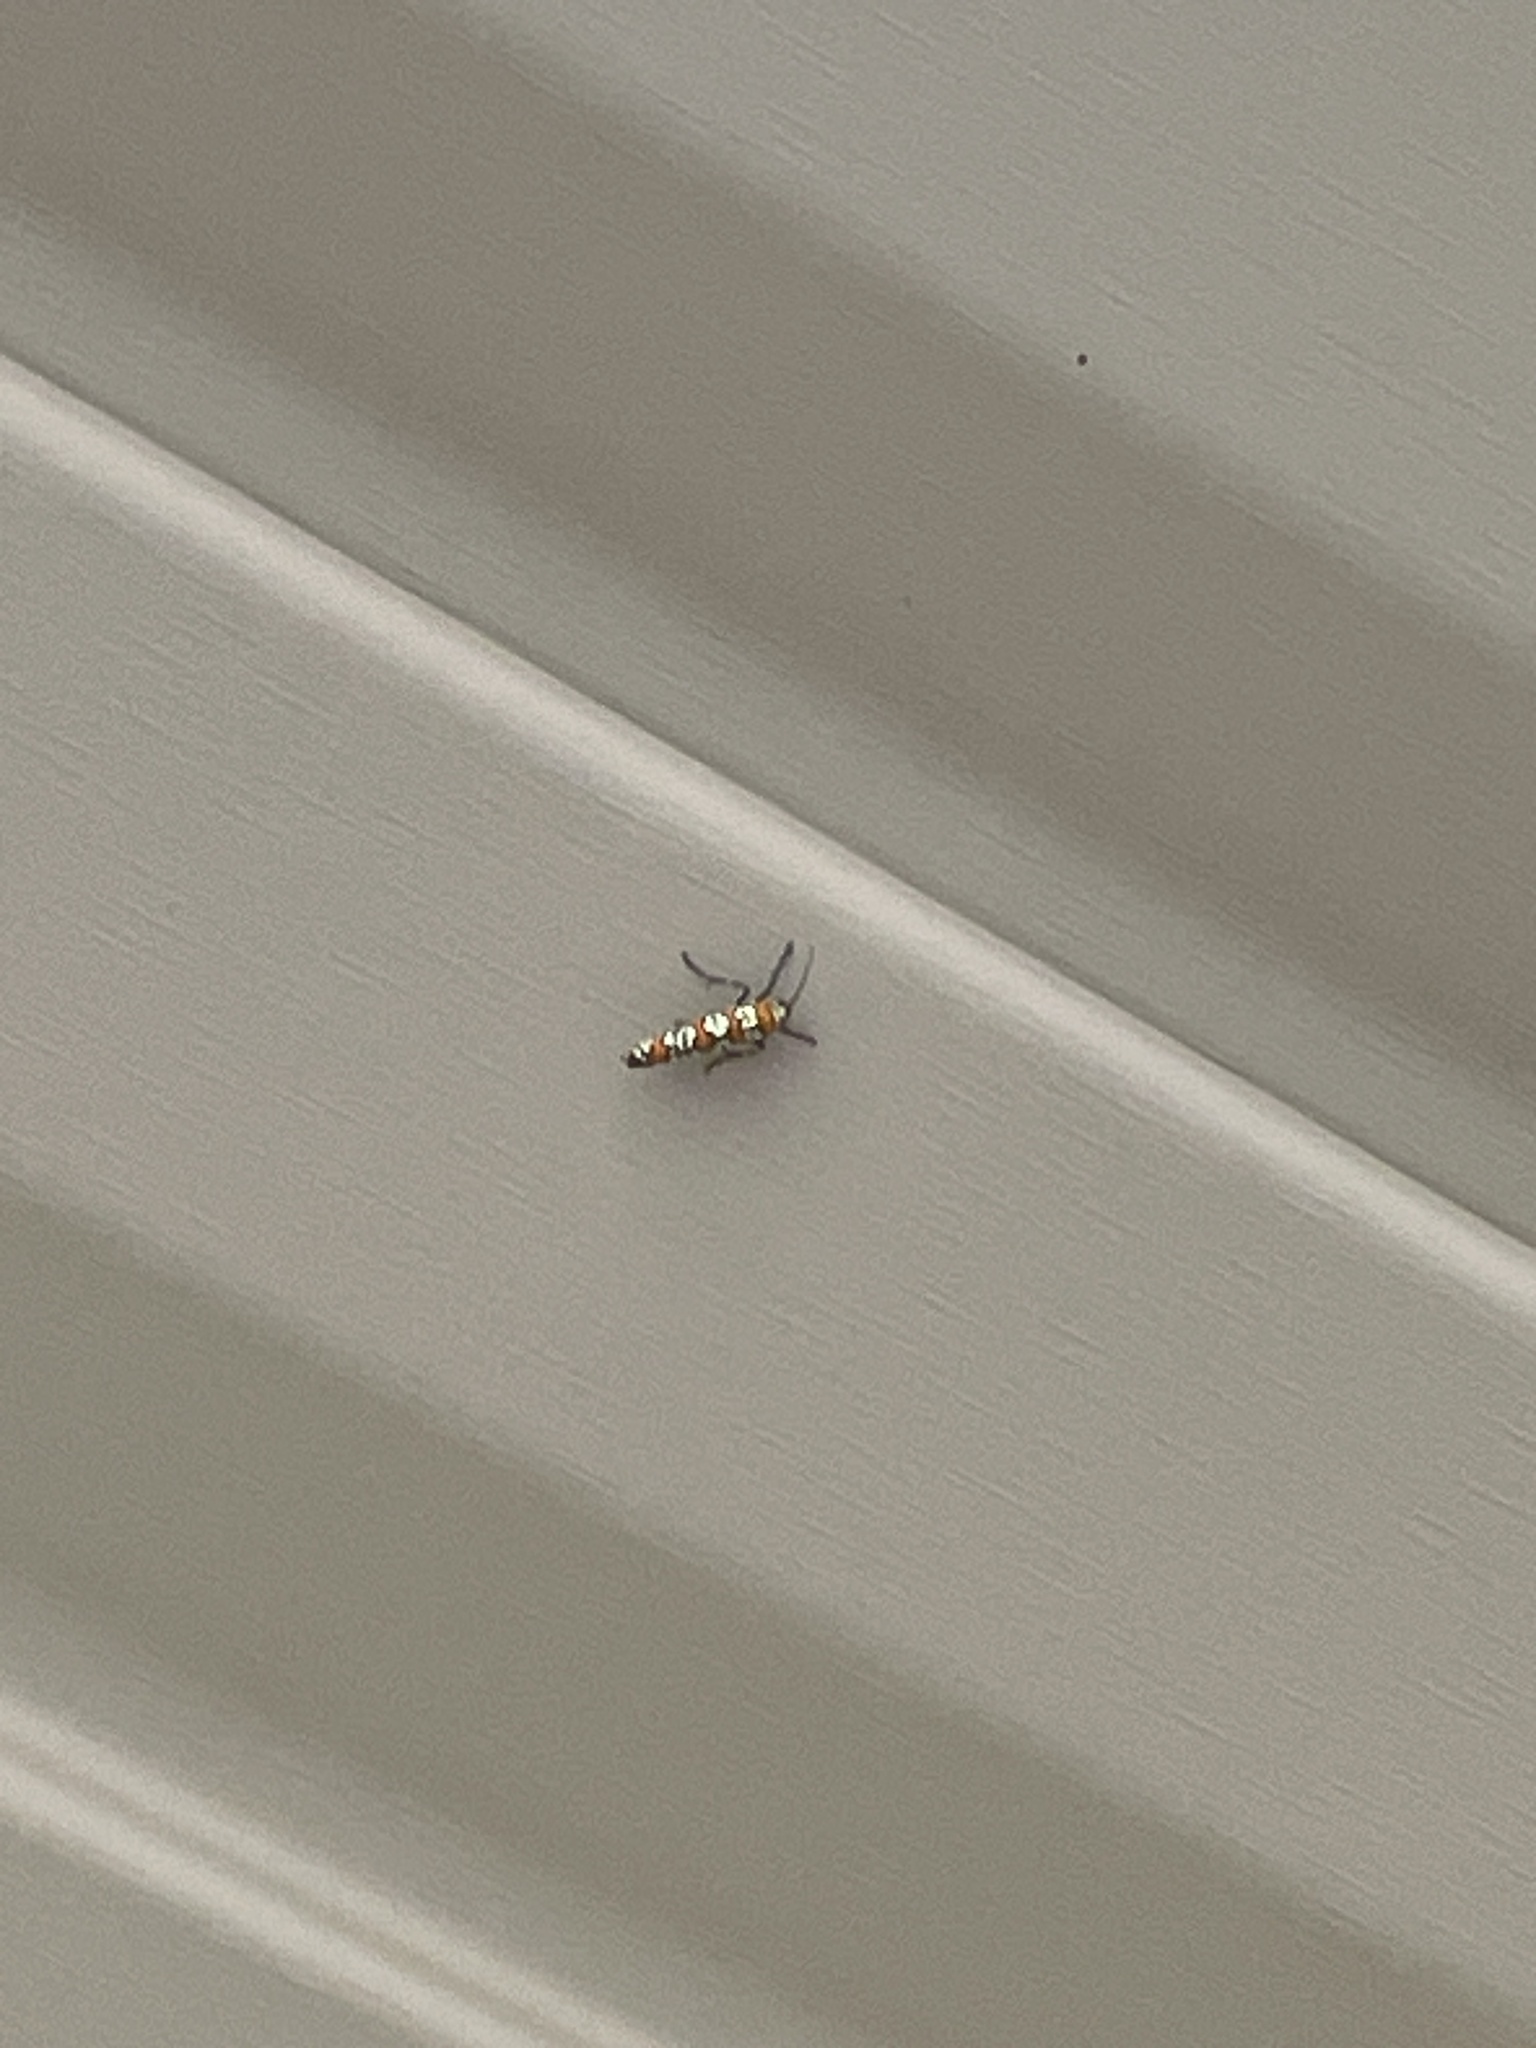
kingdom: Animalia
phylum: Arthropoda
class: Insecta
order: Lepidoptera
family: Attevidae
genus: Atteva
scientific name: Atteva punctella
